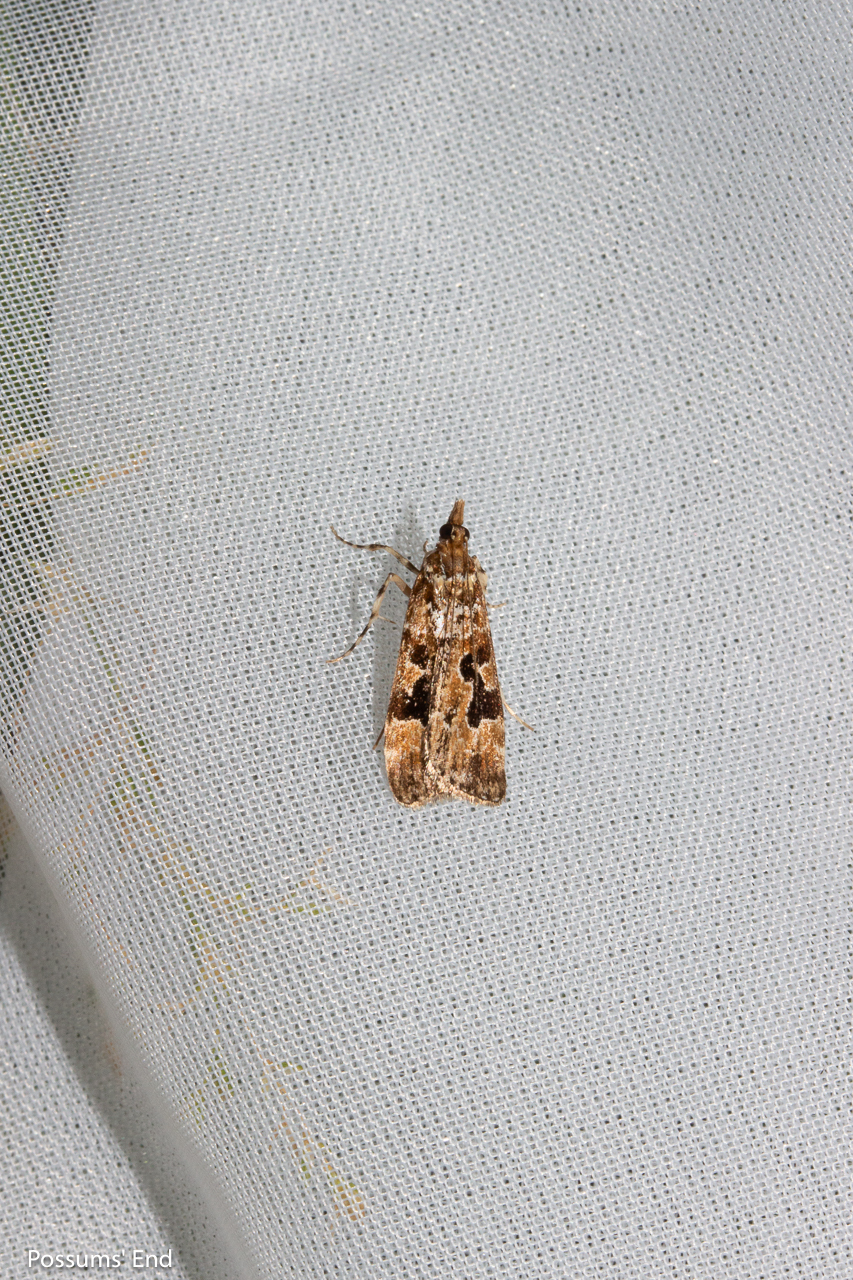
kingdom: Animalia
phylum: Arthropoda
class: Insecta
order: Lepidoptera
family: Crambidae
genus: Scoparia
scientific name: Scoparia ustimacula
